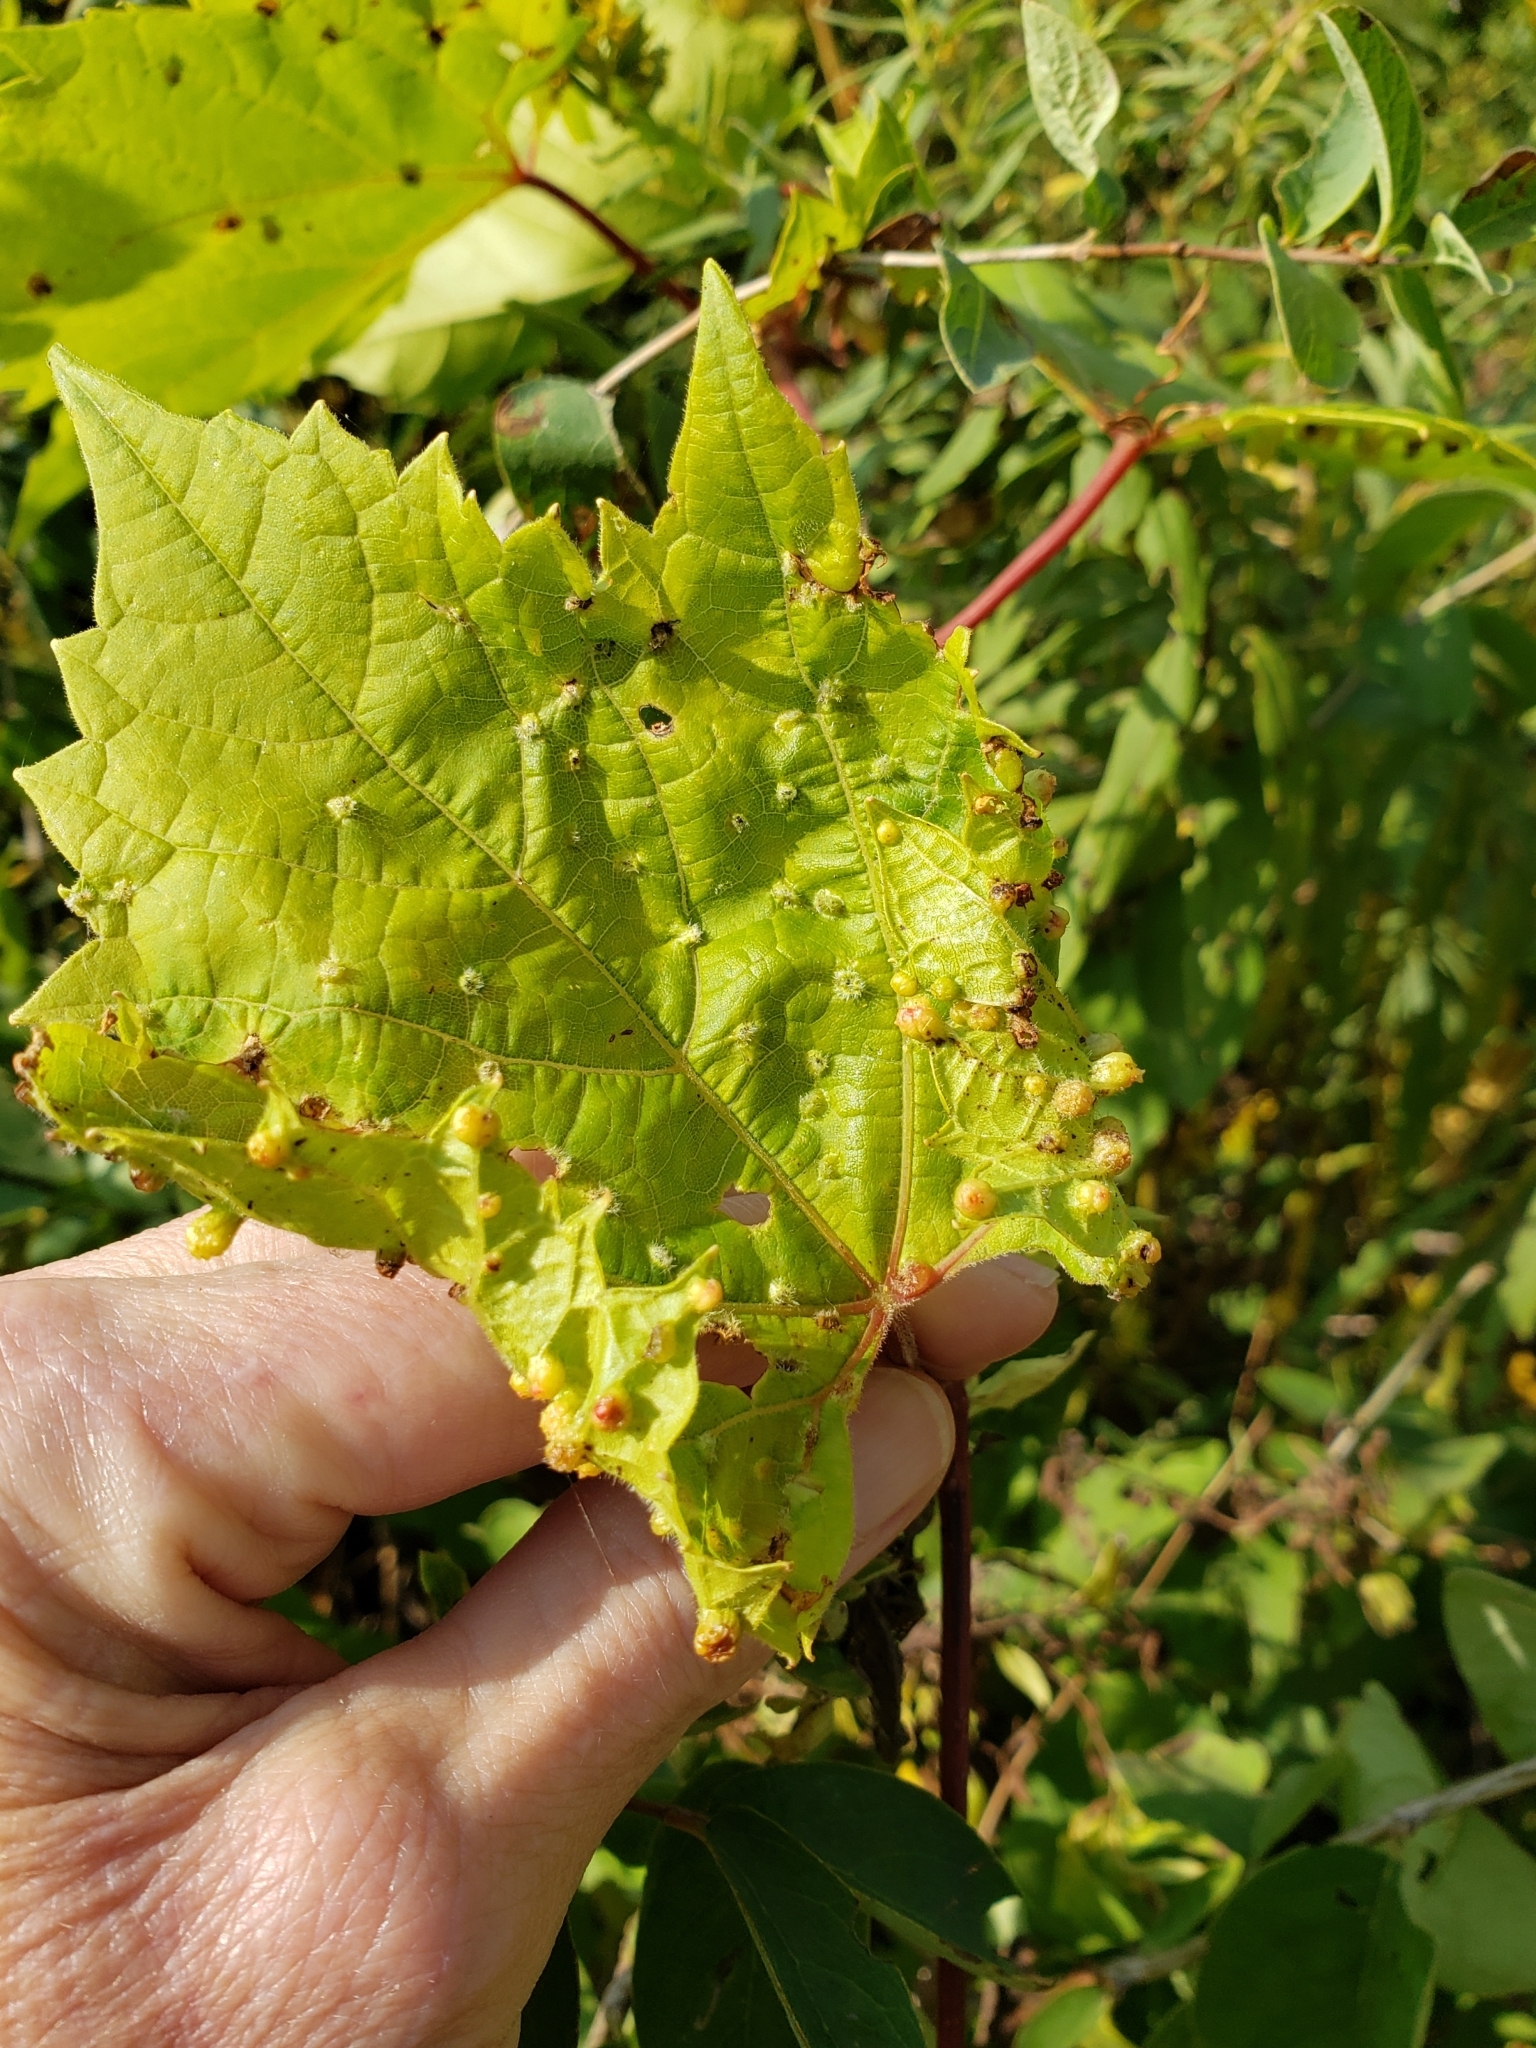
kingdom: Animalia
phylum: Arthropoda
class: Insecta
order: Hemiptera
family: Phylloxeridae
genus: Daktulosphaira
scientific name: Daktulosphaira vitifoliae
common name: Grape phylloxera
